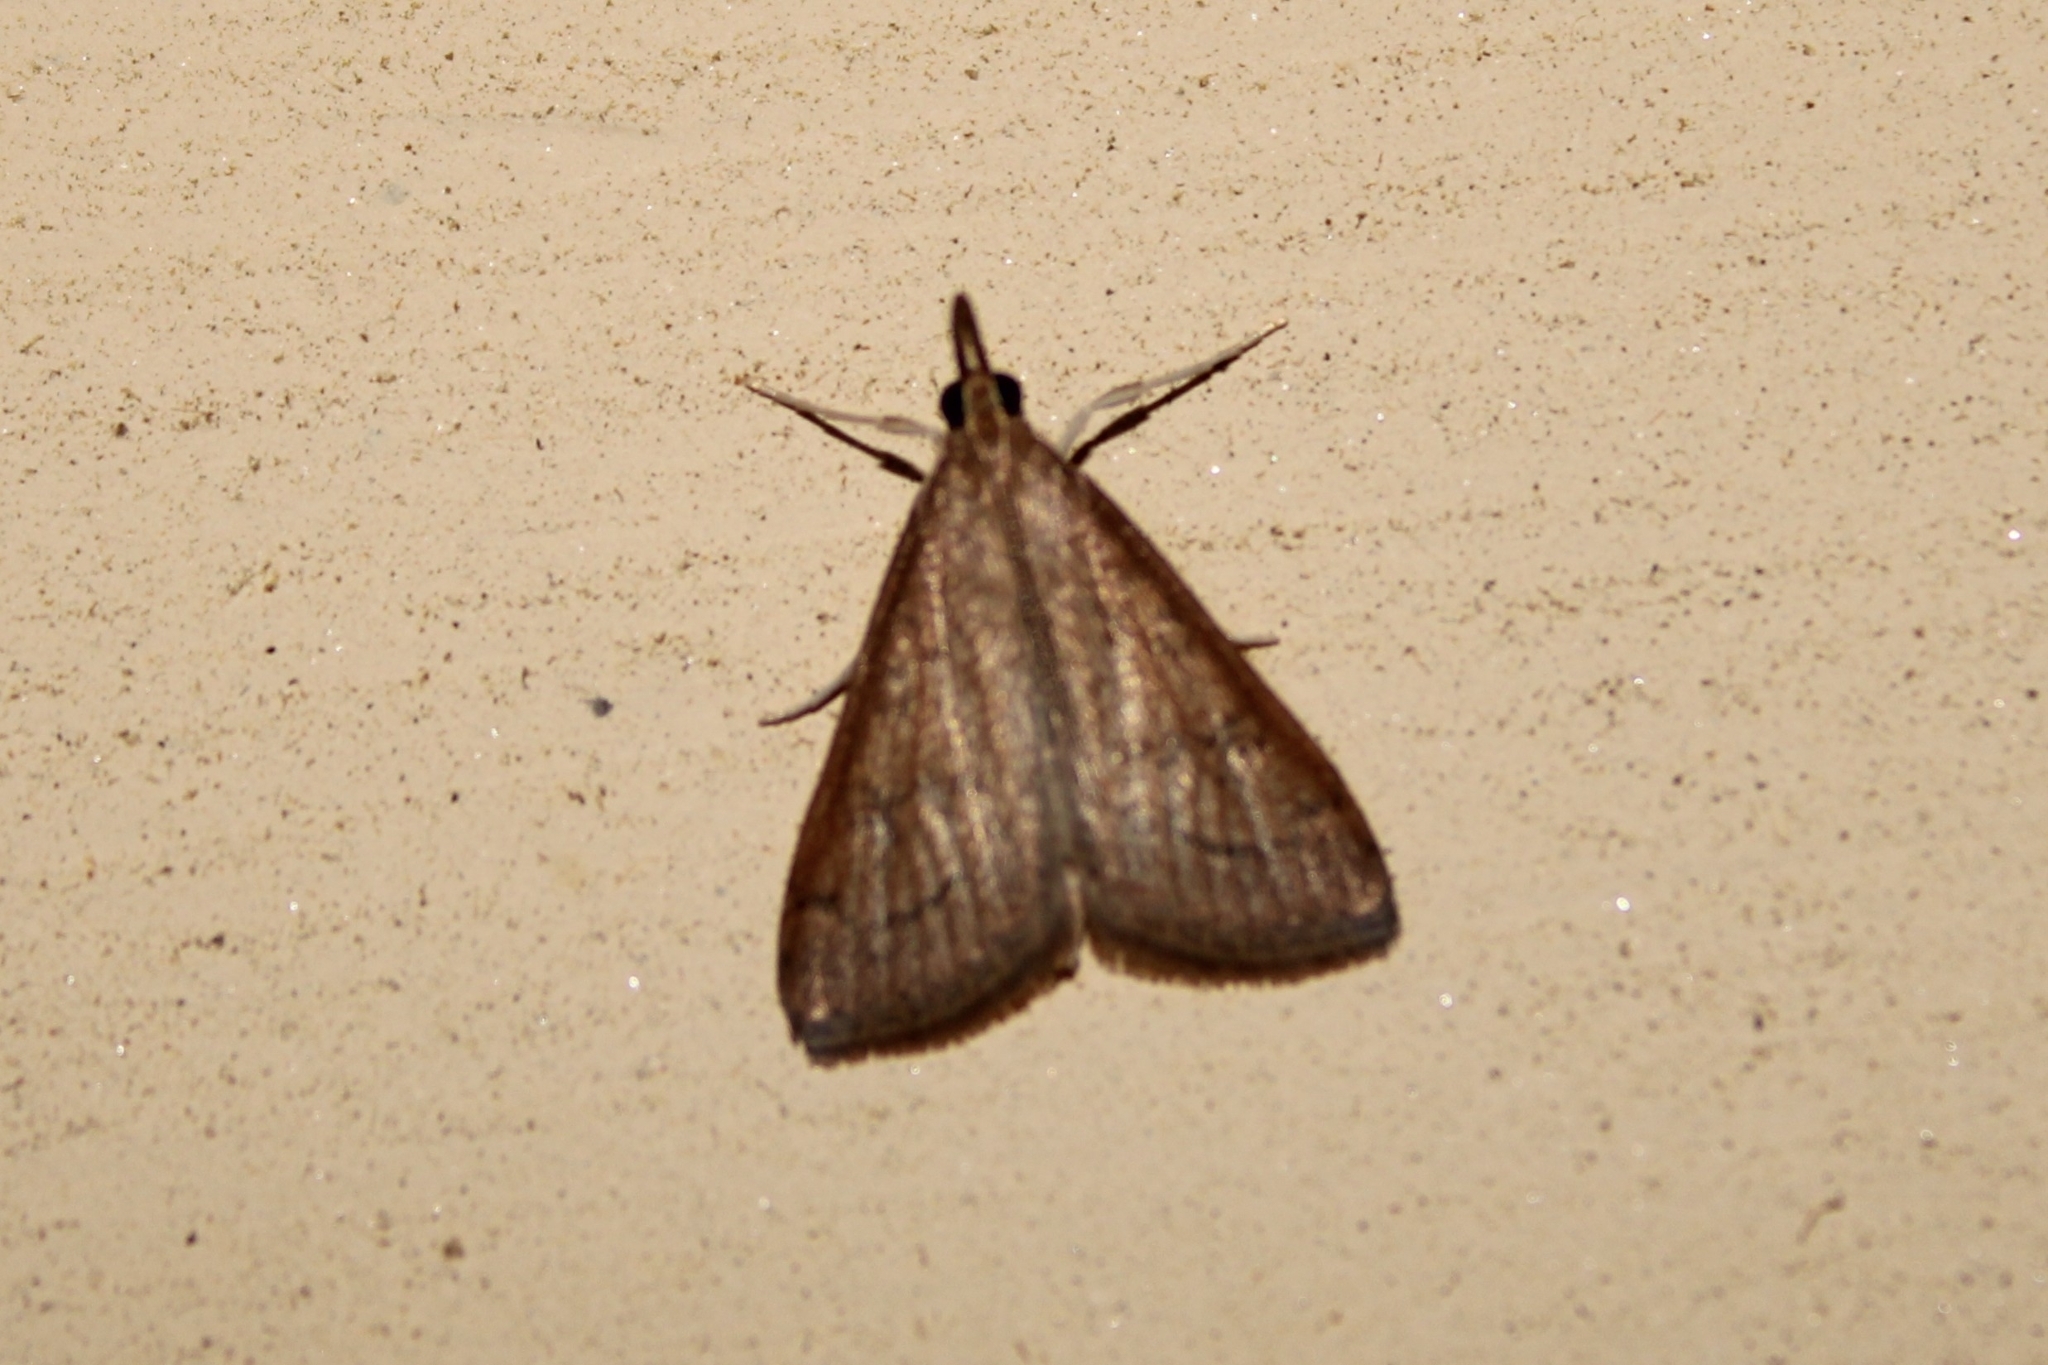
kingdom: Animalia
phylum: Arthropoda
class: Insecta
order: Lepidoptera
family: Crambidae
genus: Udea
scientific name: Udea rubigalis
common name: Celery leaftier moth
